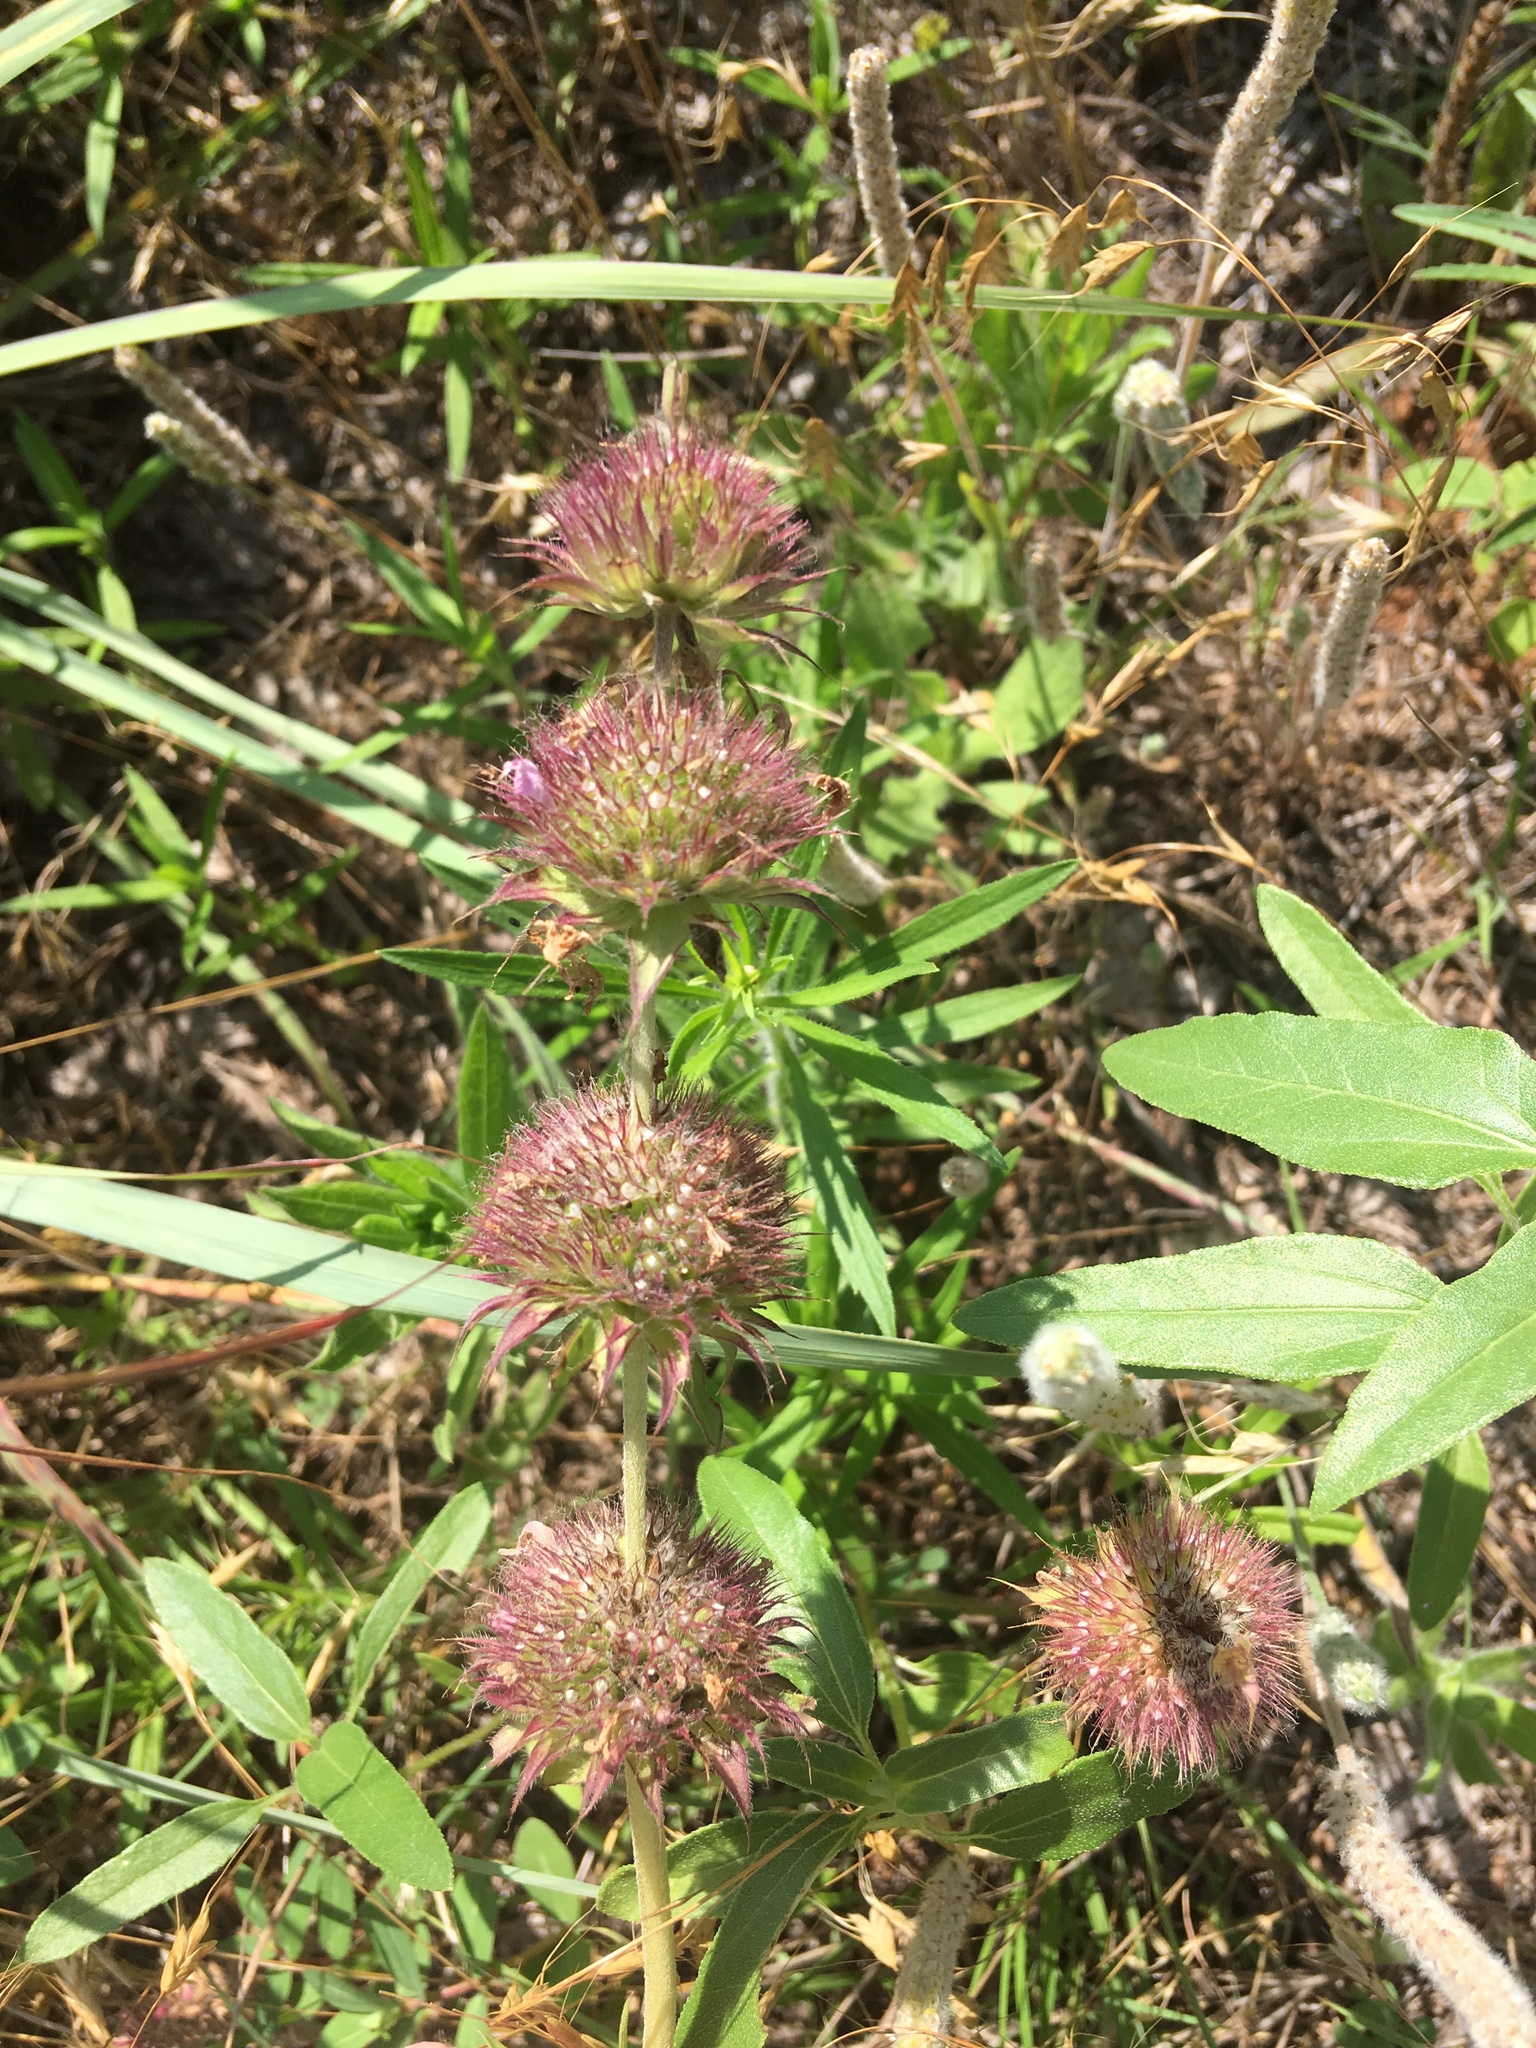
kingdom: Plantae
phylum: Tracheophyta
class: Magnoliopsida
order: Lamiales
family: Lamiaceae
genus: Monarda
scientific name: Monarda clinopodioides
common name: Basil beebalm
